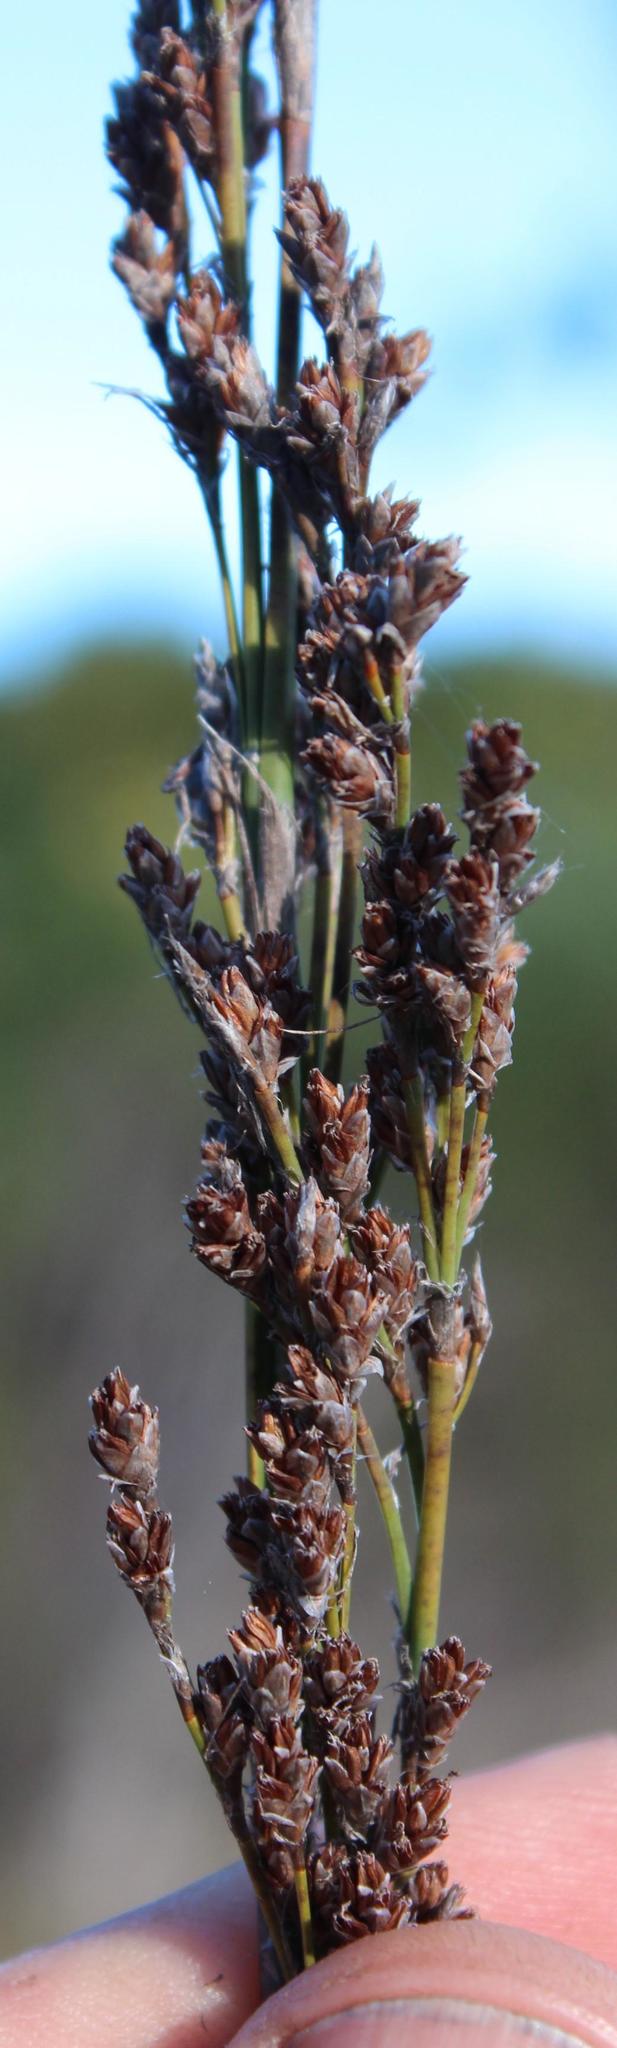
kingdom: Plantae
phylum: Tracheophyta
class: Liliopsida
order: Poales
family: Restionaceae
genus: Rhodocoma
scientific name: Rhodocoma fruticosa
